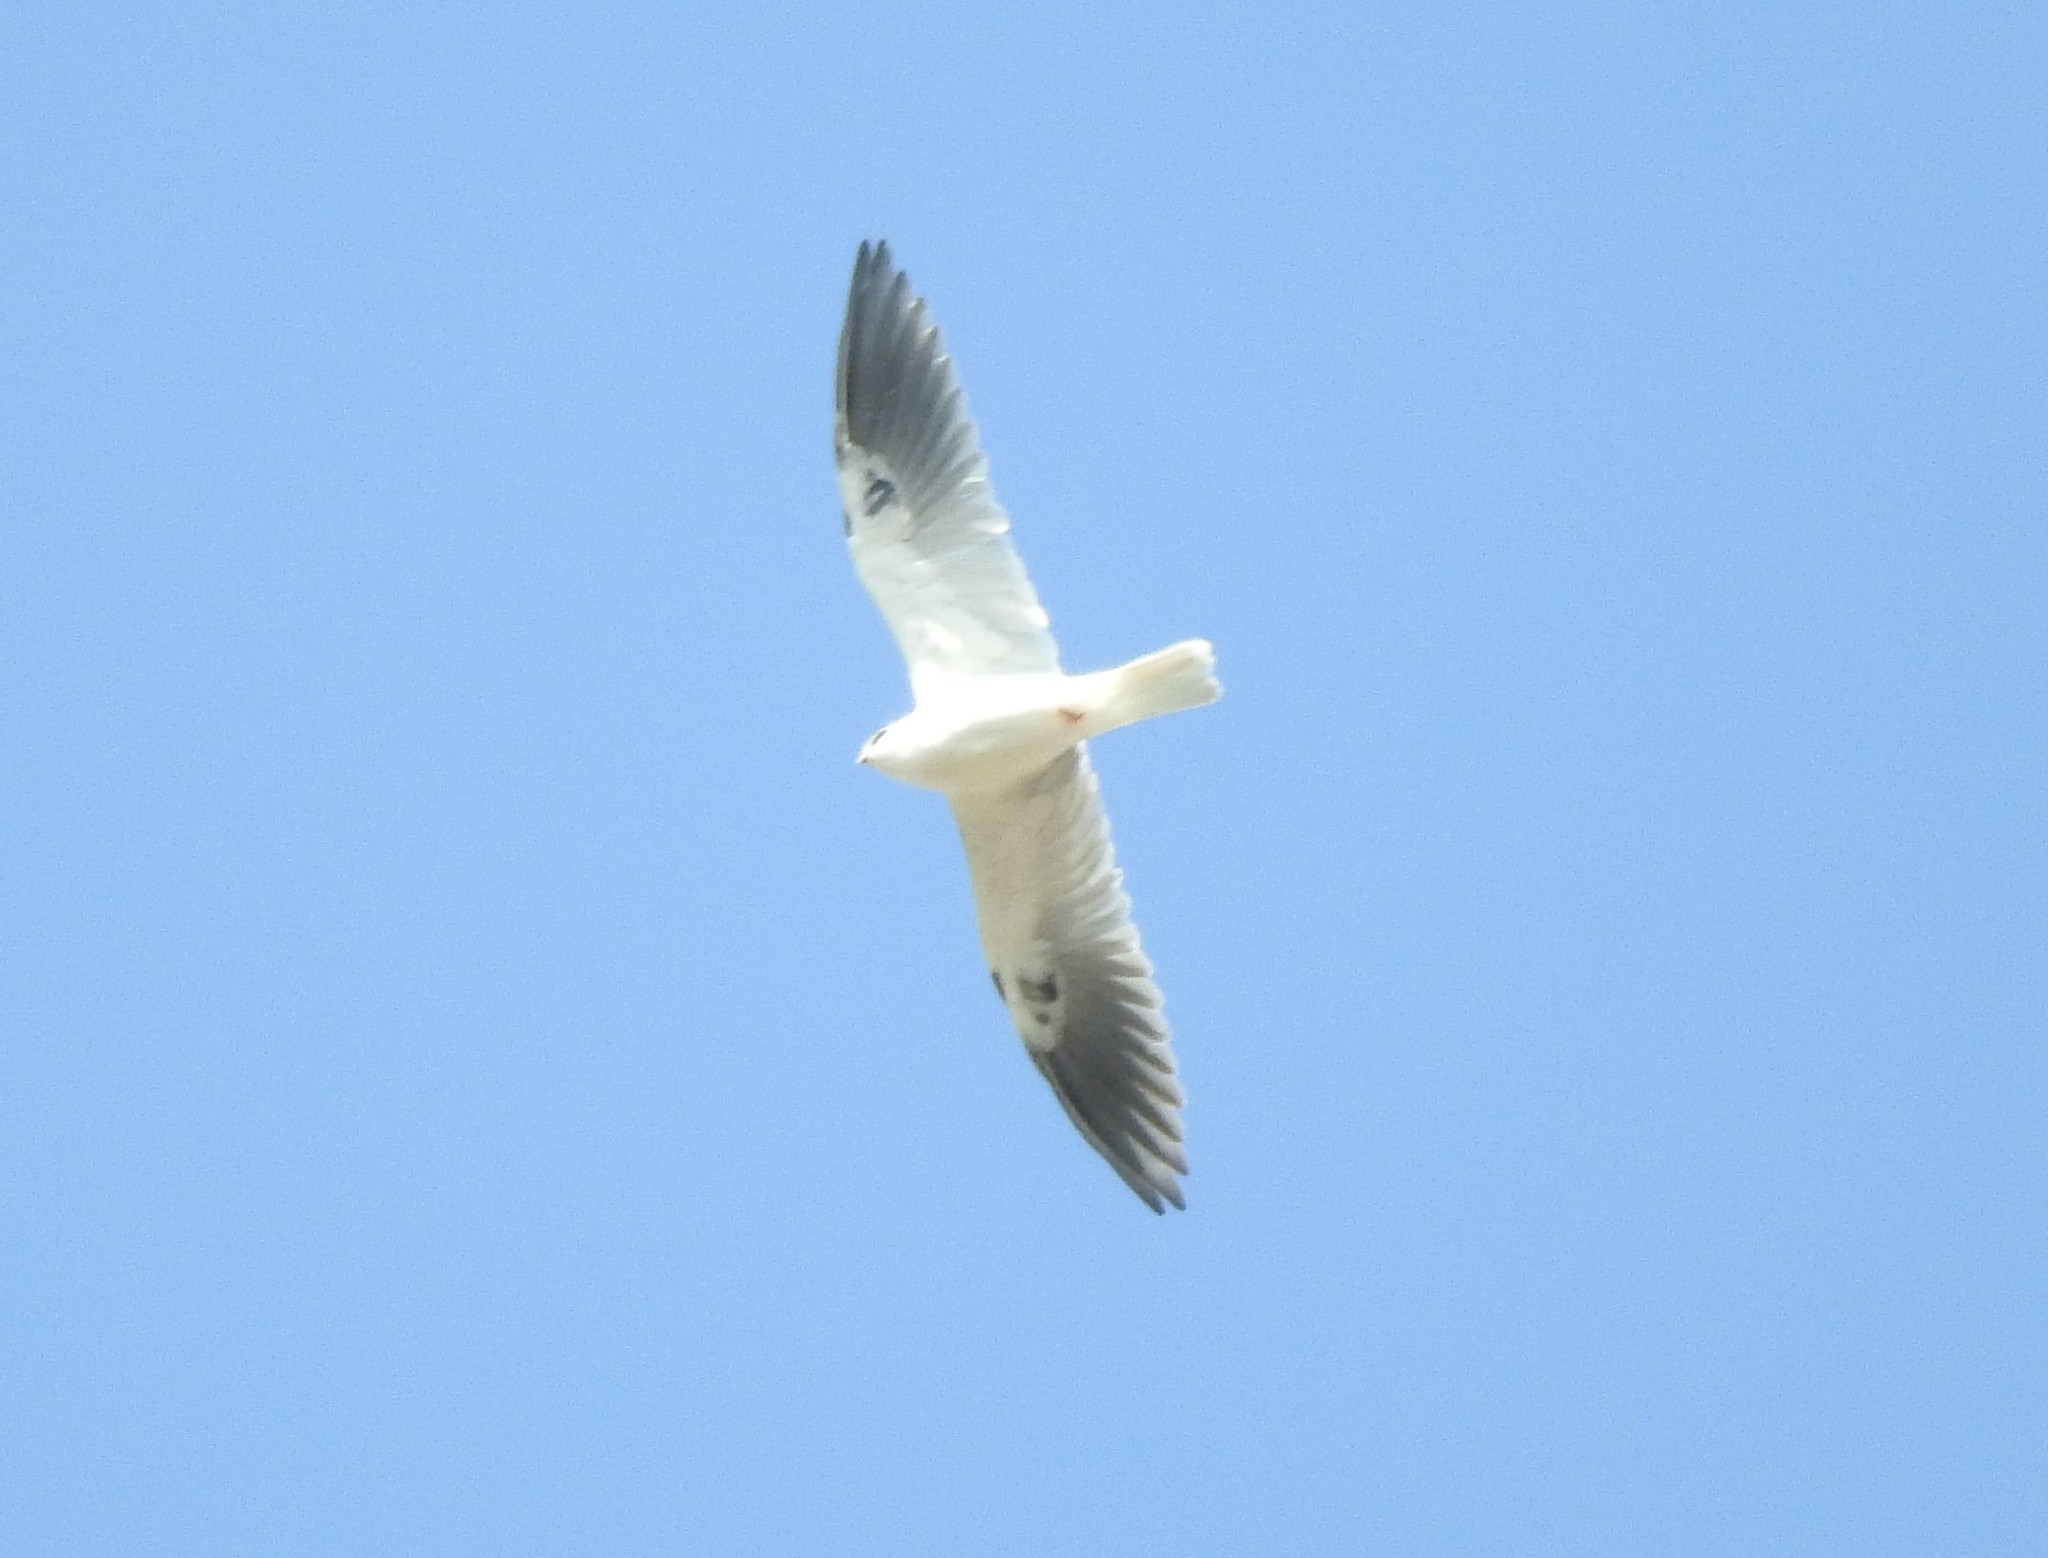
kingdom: Animalia
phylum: Chordata
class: Aves
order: Accipitriformes
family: Accipitridae
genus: Elanus
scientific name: Elanus leucurus
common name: White-tailed kite
